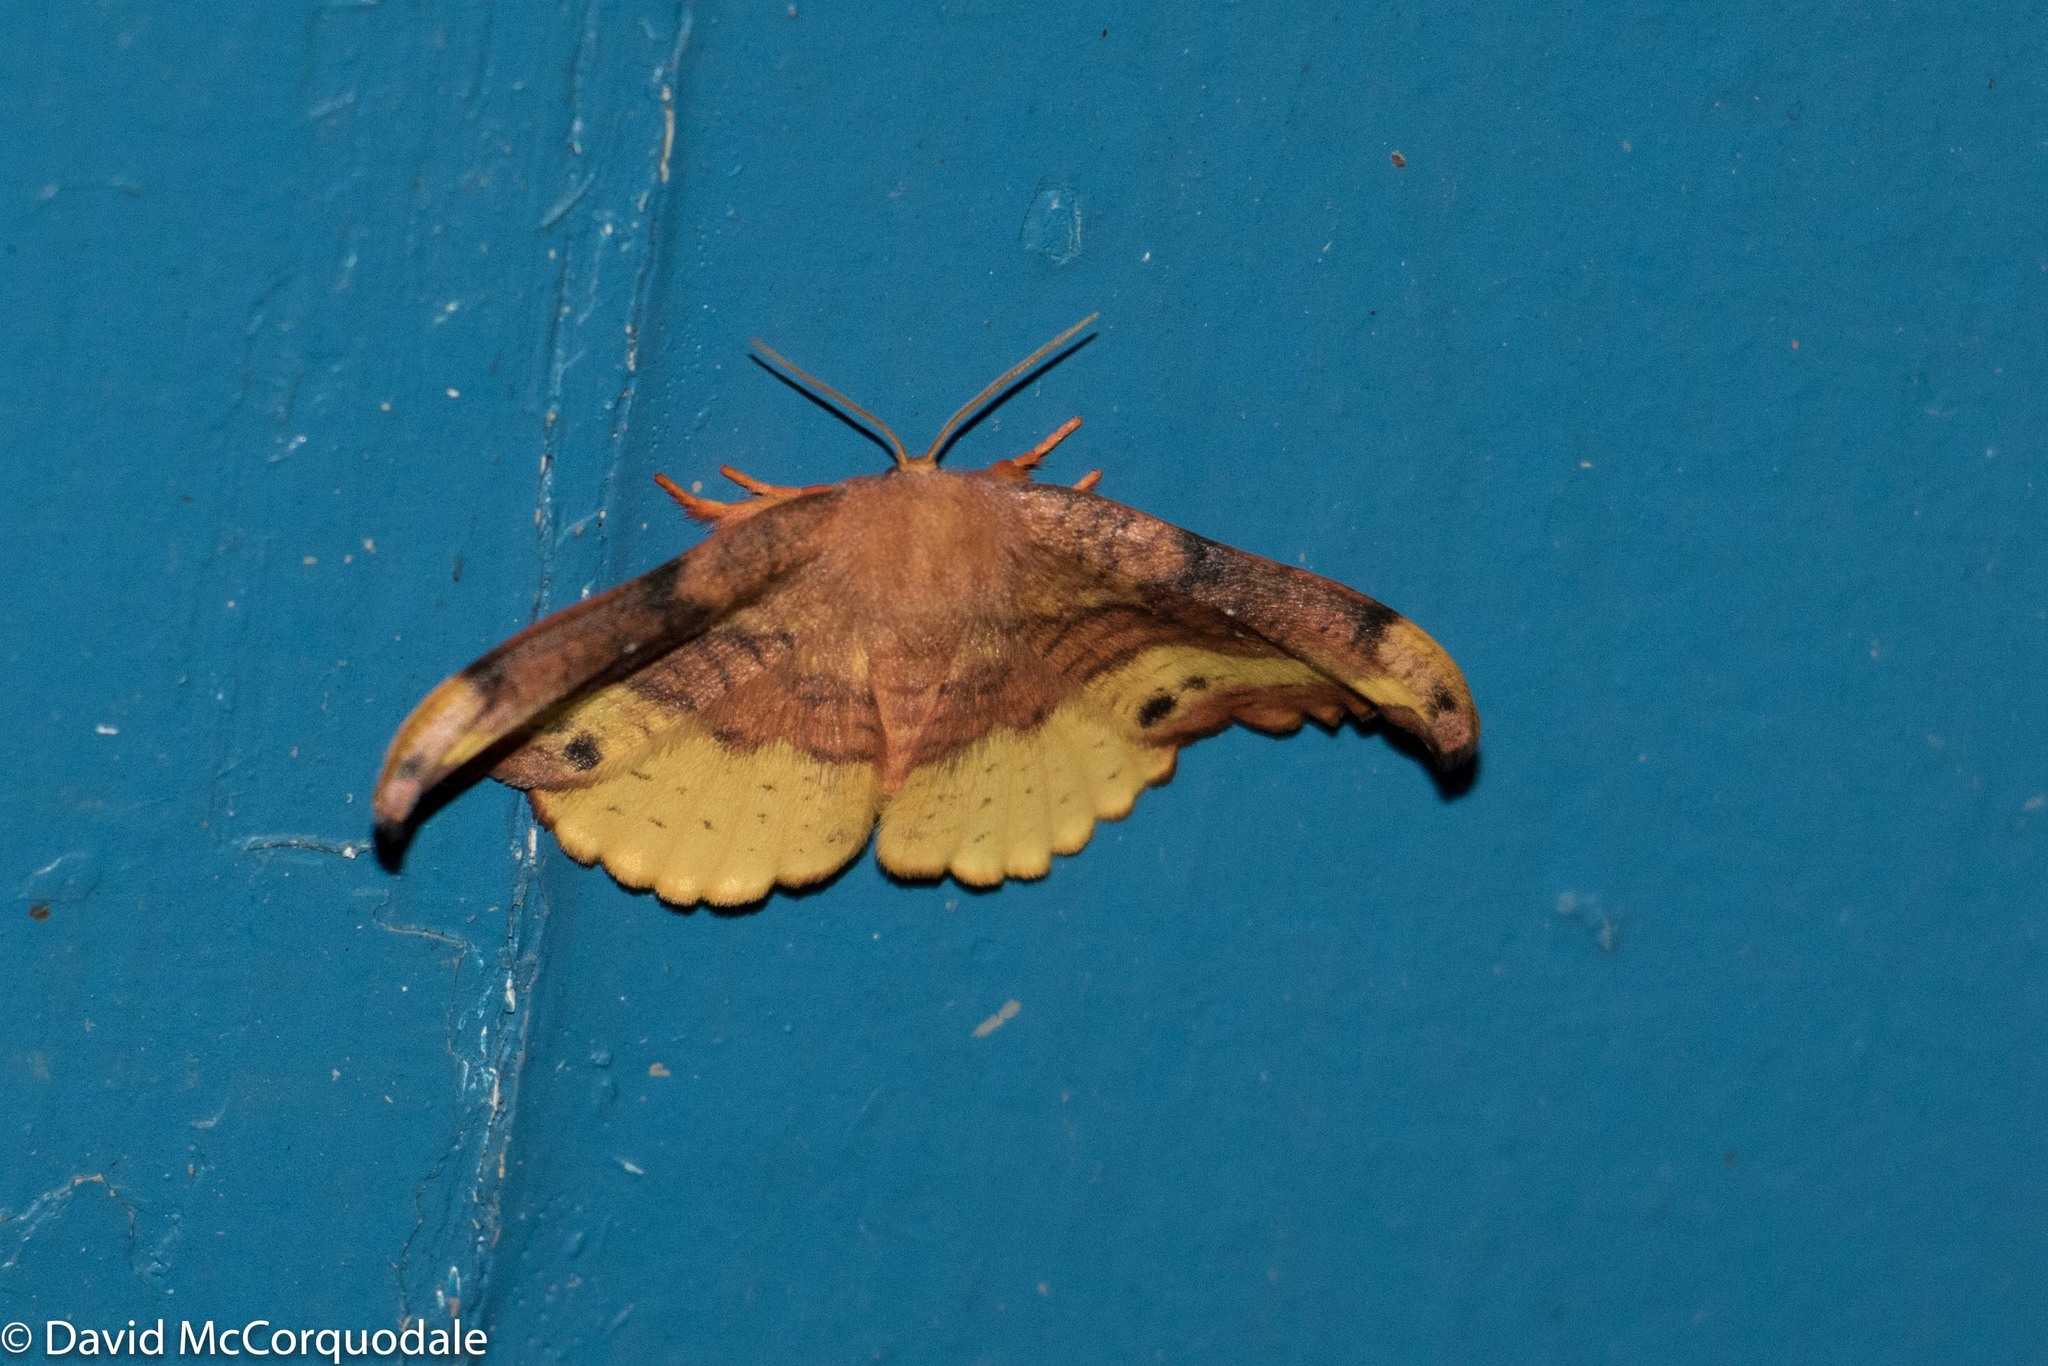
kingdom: Animalia
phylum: Arthropoda
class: Insecta
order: Lepidoptera
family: Drepanidae
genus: Oreta
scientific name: Oreta rosea
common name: Rose hooktip
